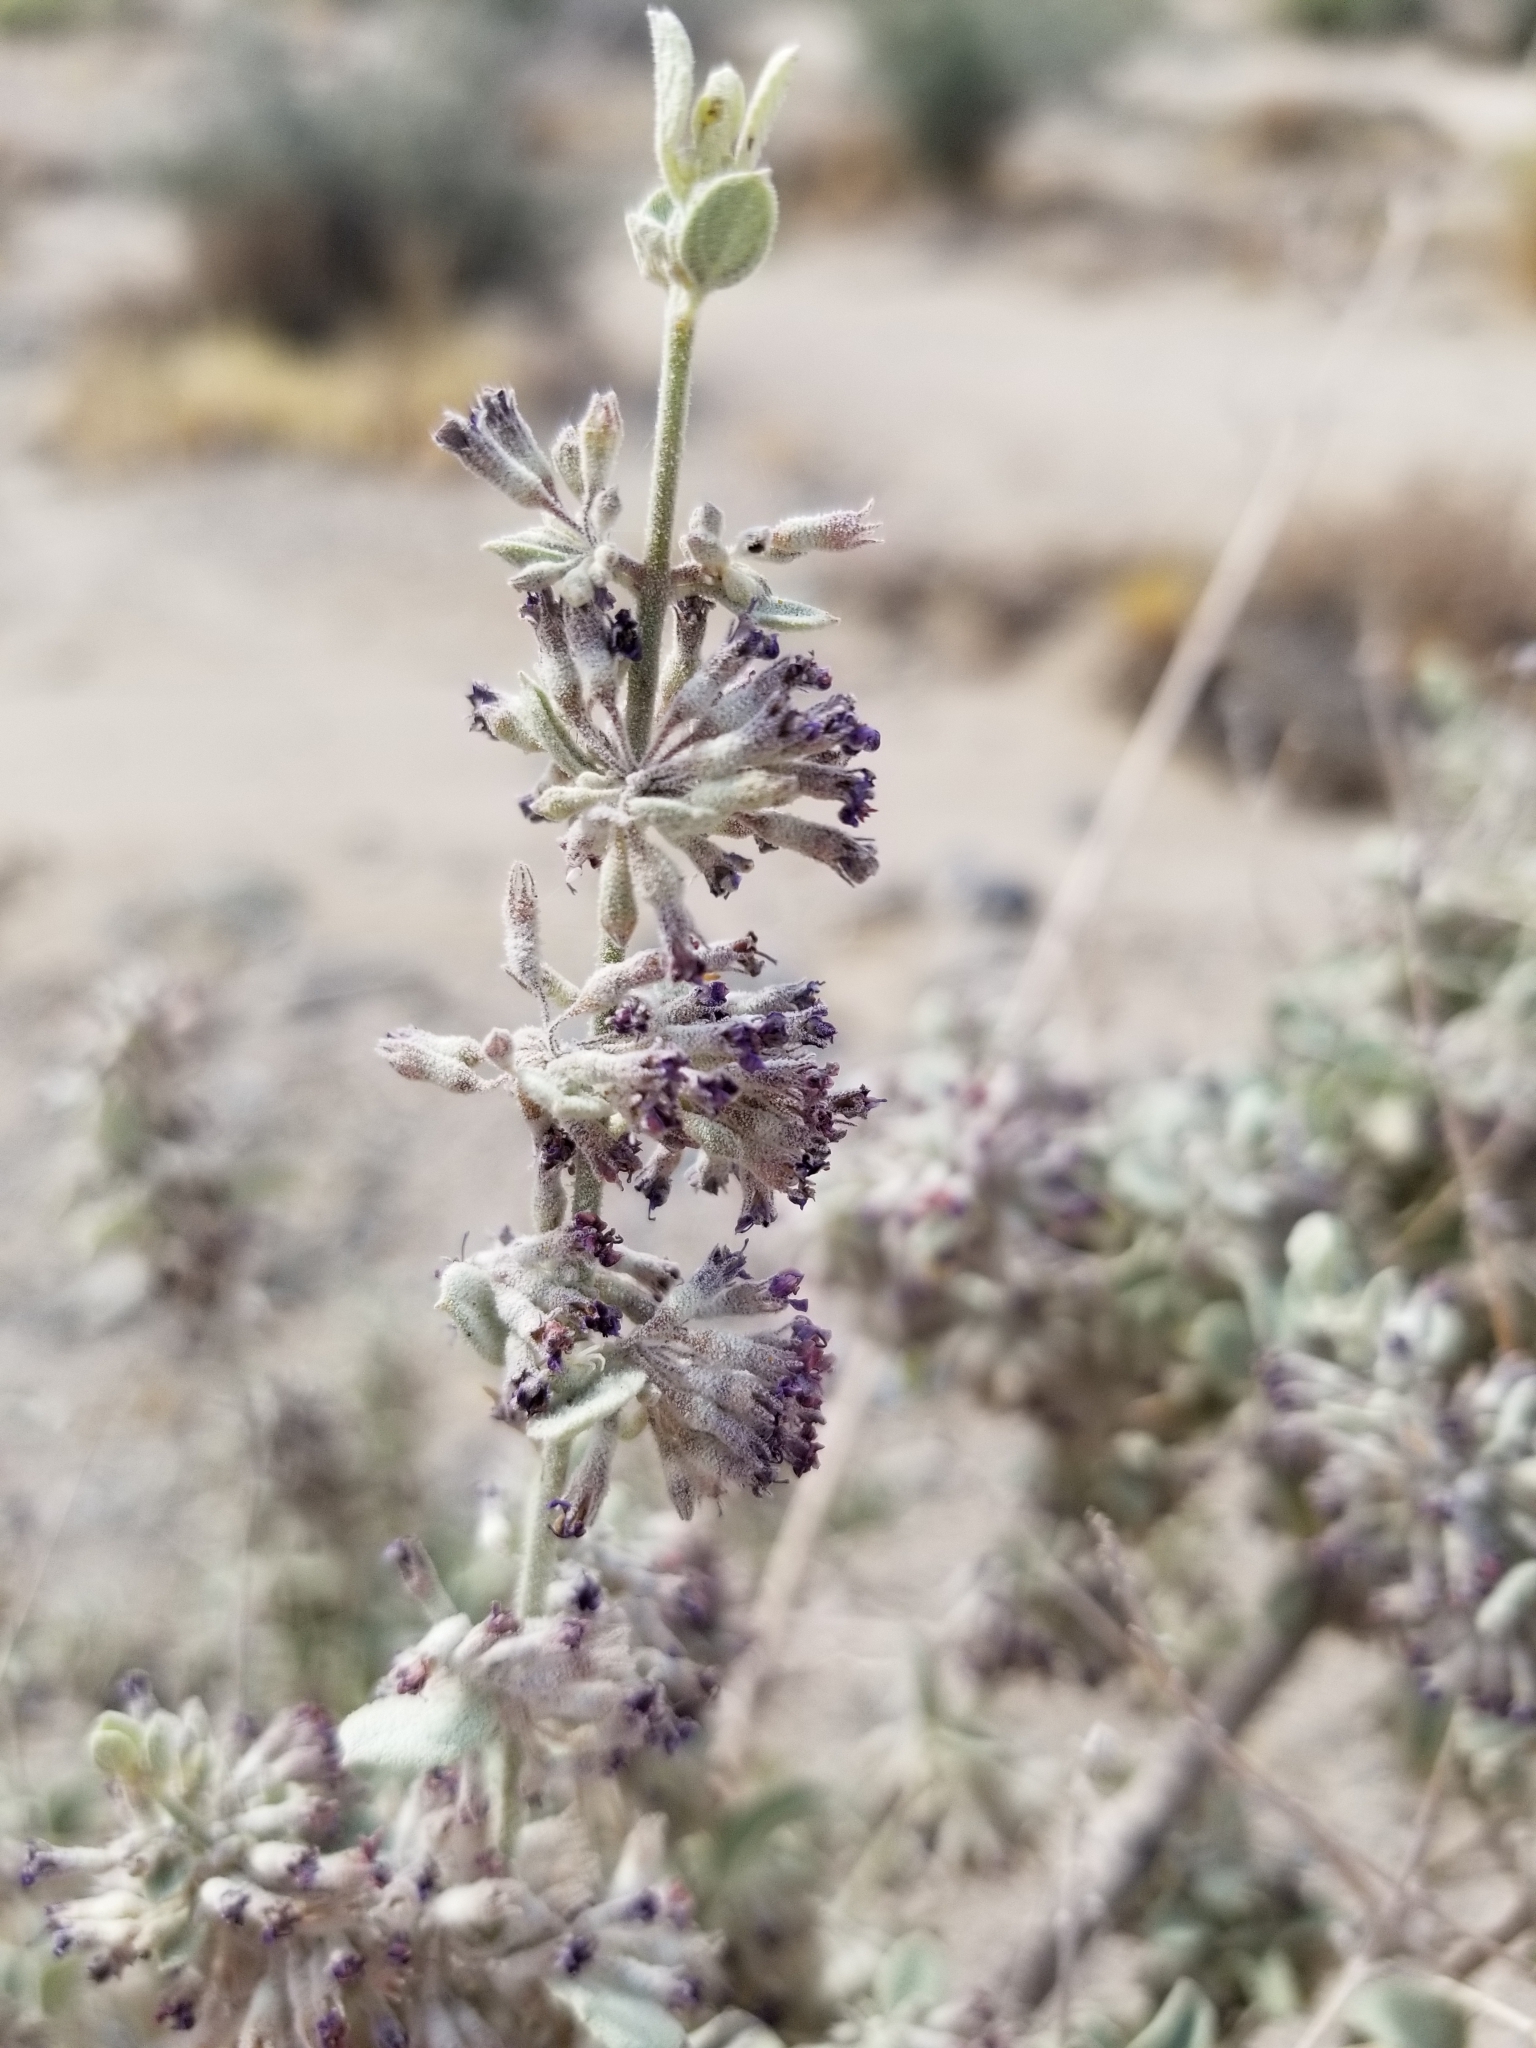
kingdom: Plantae
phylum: Tracheophyta
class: Magnoliopsida
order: Lamiales
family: Lamiaceae
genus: Condea
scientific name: Condea emoryi
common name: Chia
